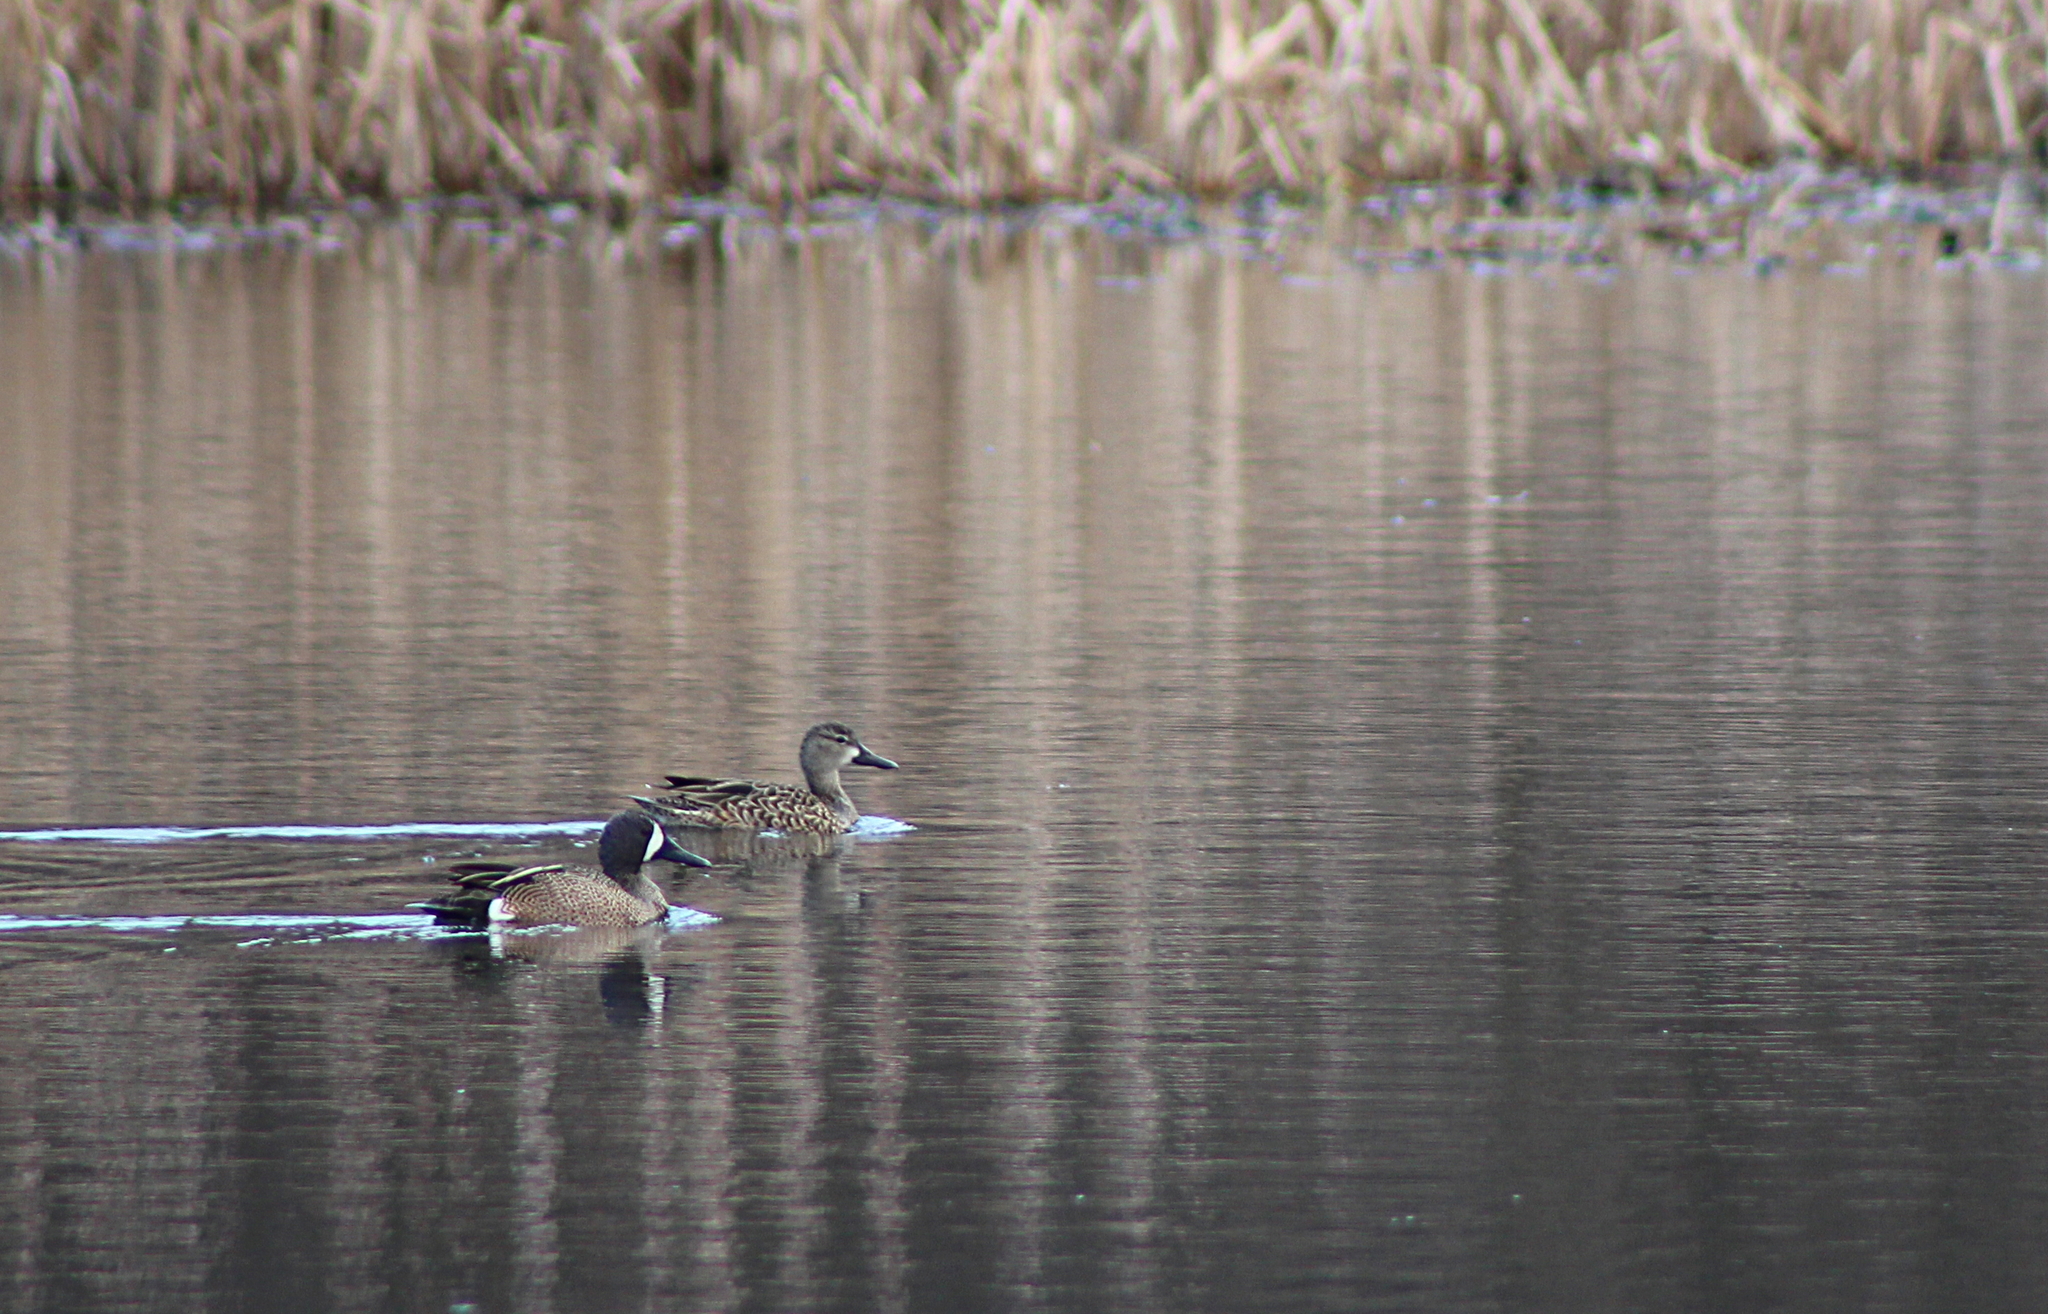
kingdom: Animalia
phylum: Chordata
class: Aves
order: Anseriformes
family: Anatidae
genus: Spatula
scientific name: Spatula discors
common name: Blue-winged teal
